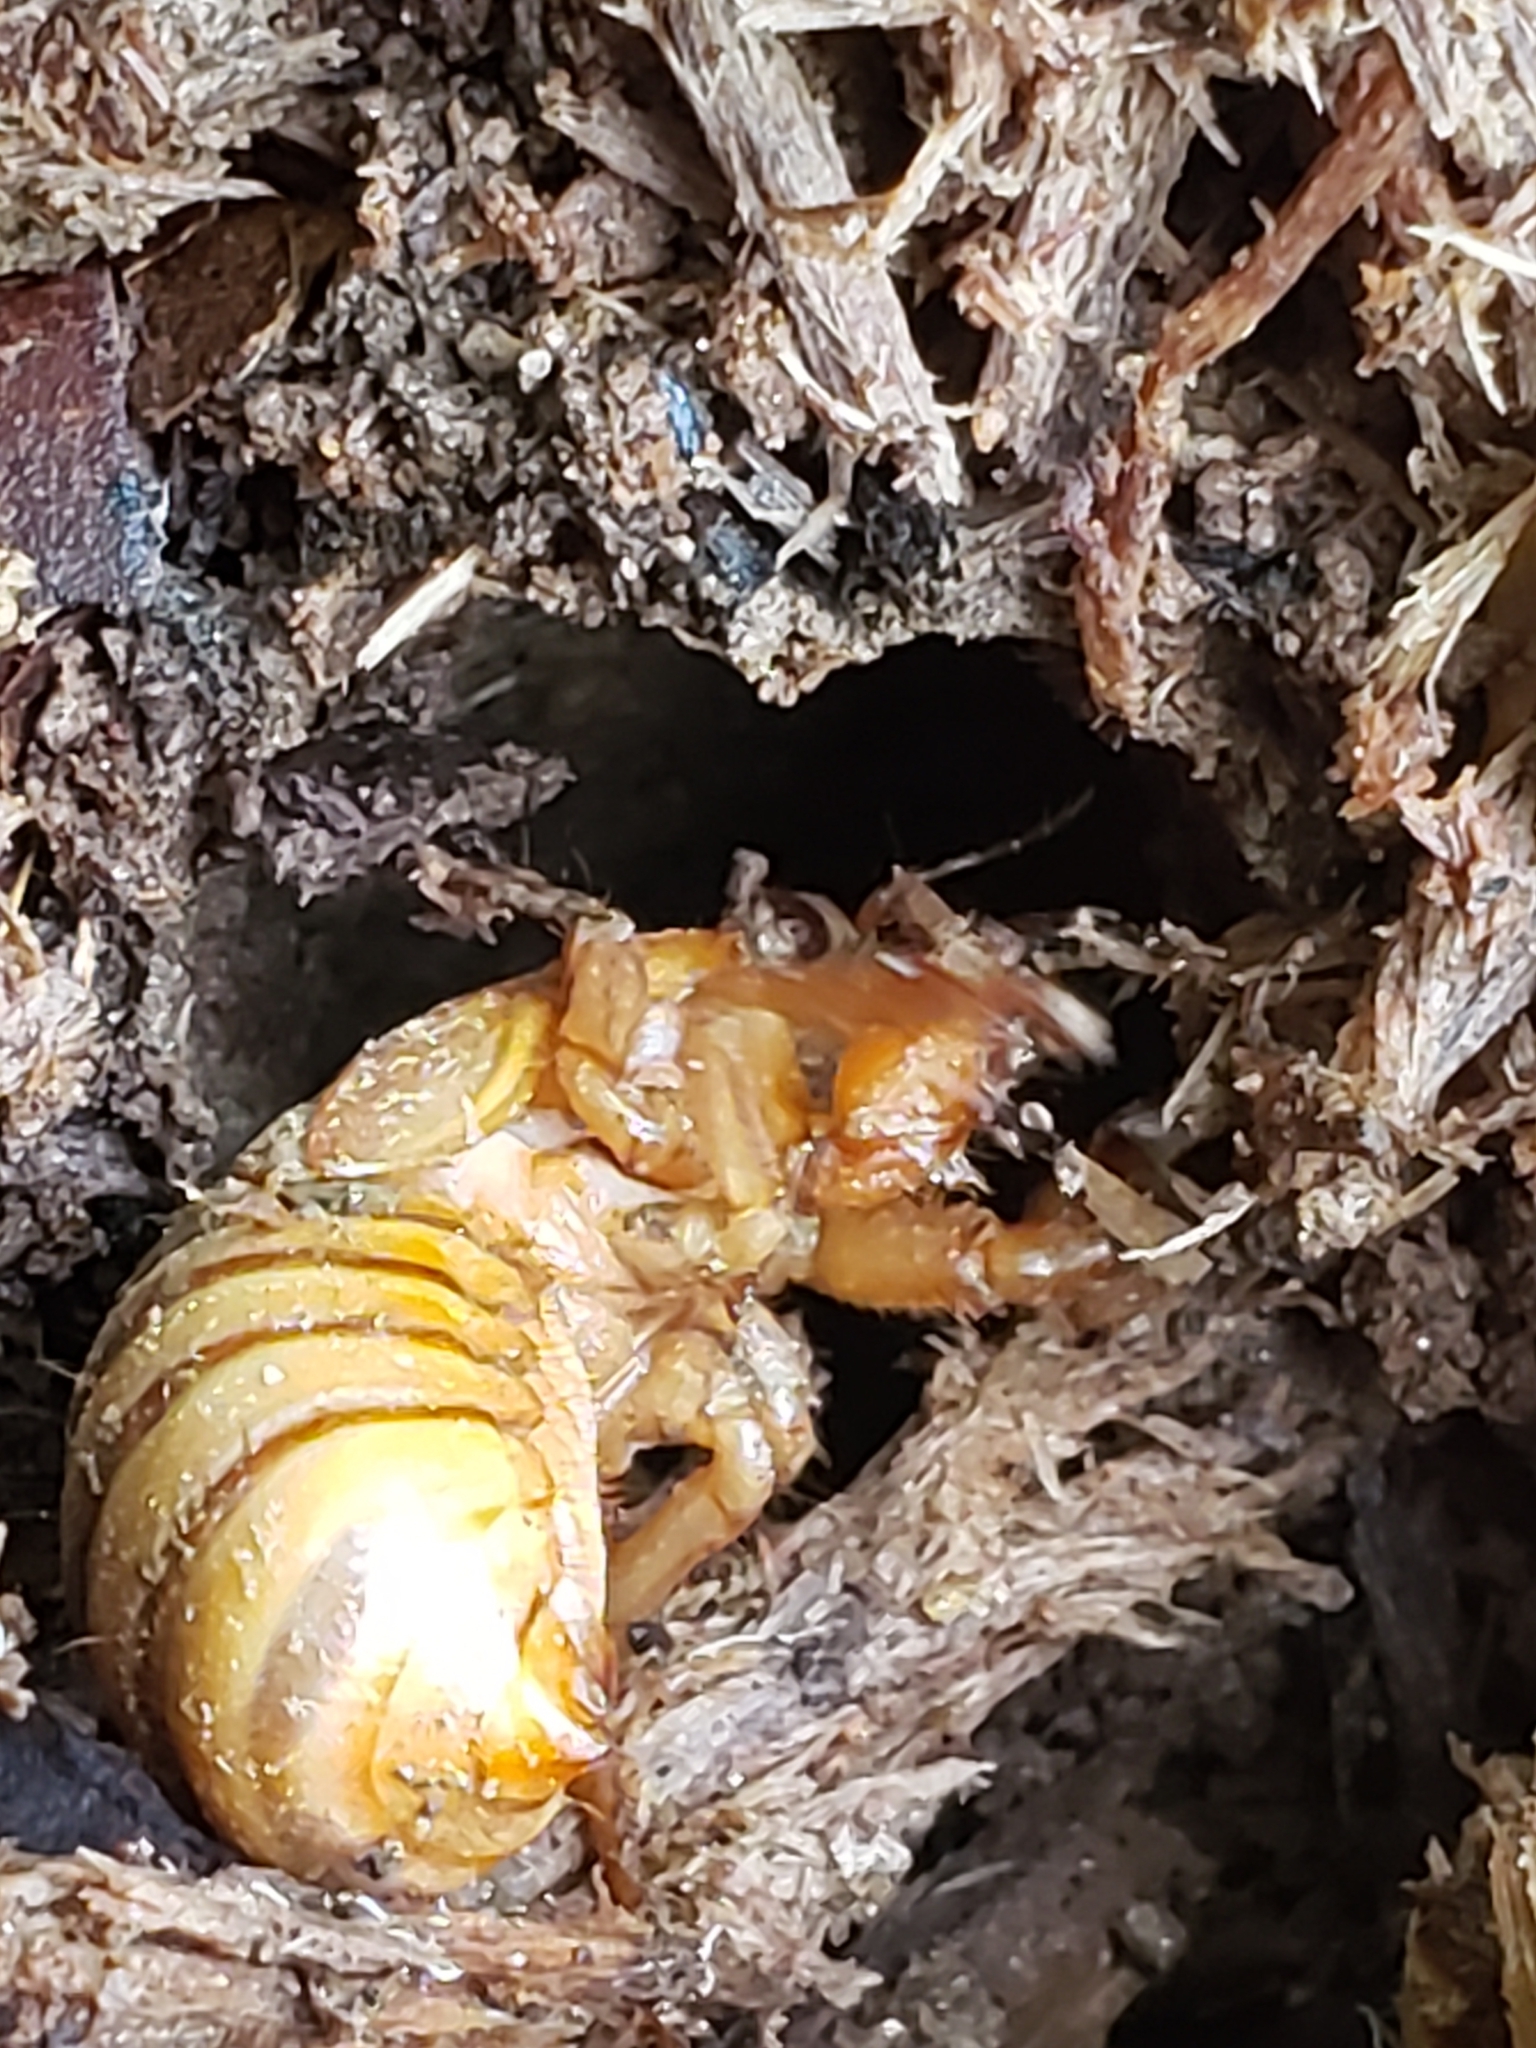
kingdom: Animalia
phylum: Arthropoda
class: Insecta
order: Hemiptera
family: Cicadidae
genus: Magicicada
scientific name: Magicicada
